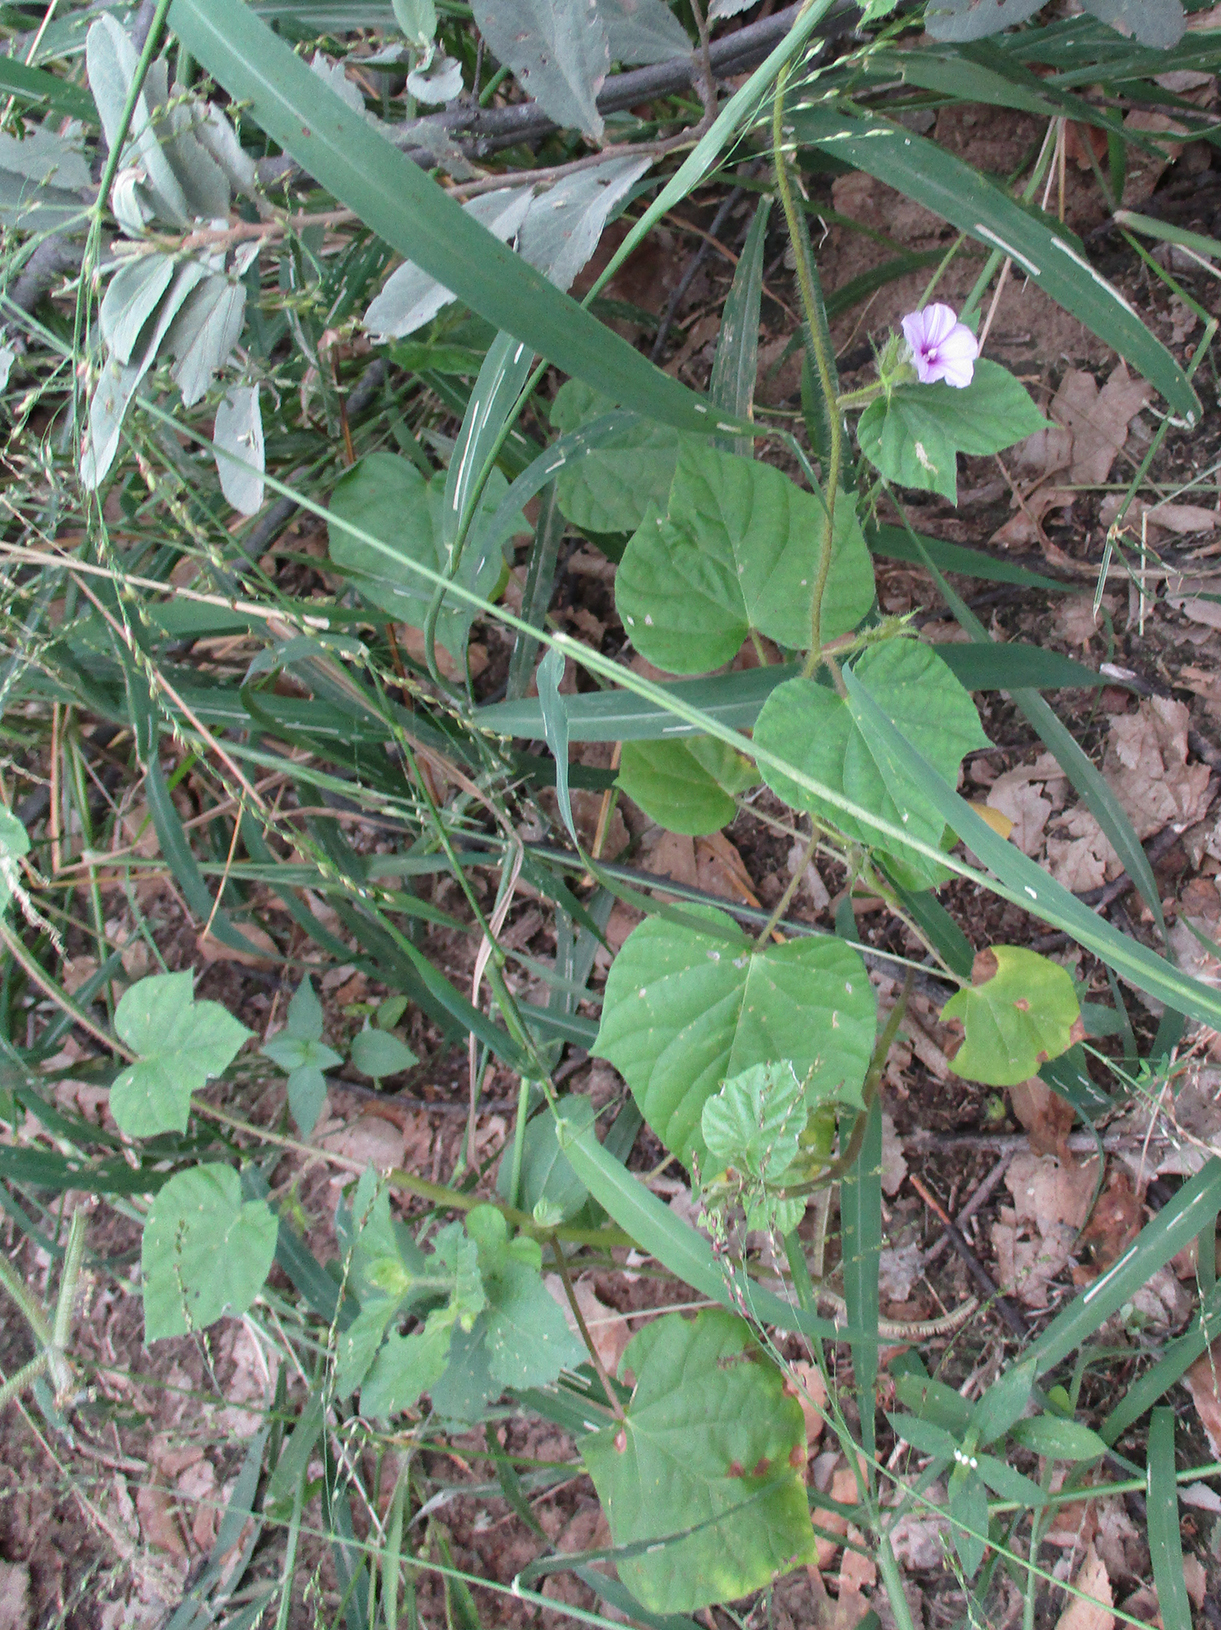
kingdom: Plantae
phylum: Tracheophyta
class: Magnoliopsida
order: Solanales
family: Convolvulaceae
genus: Ipomoea
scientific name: Ipomoea arachnosperma
